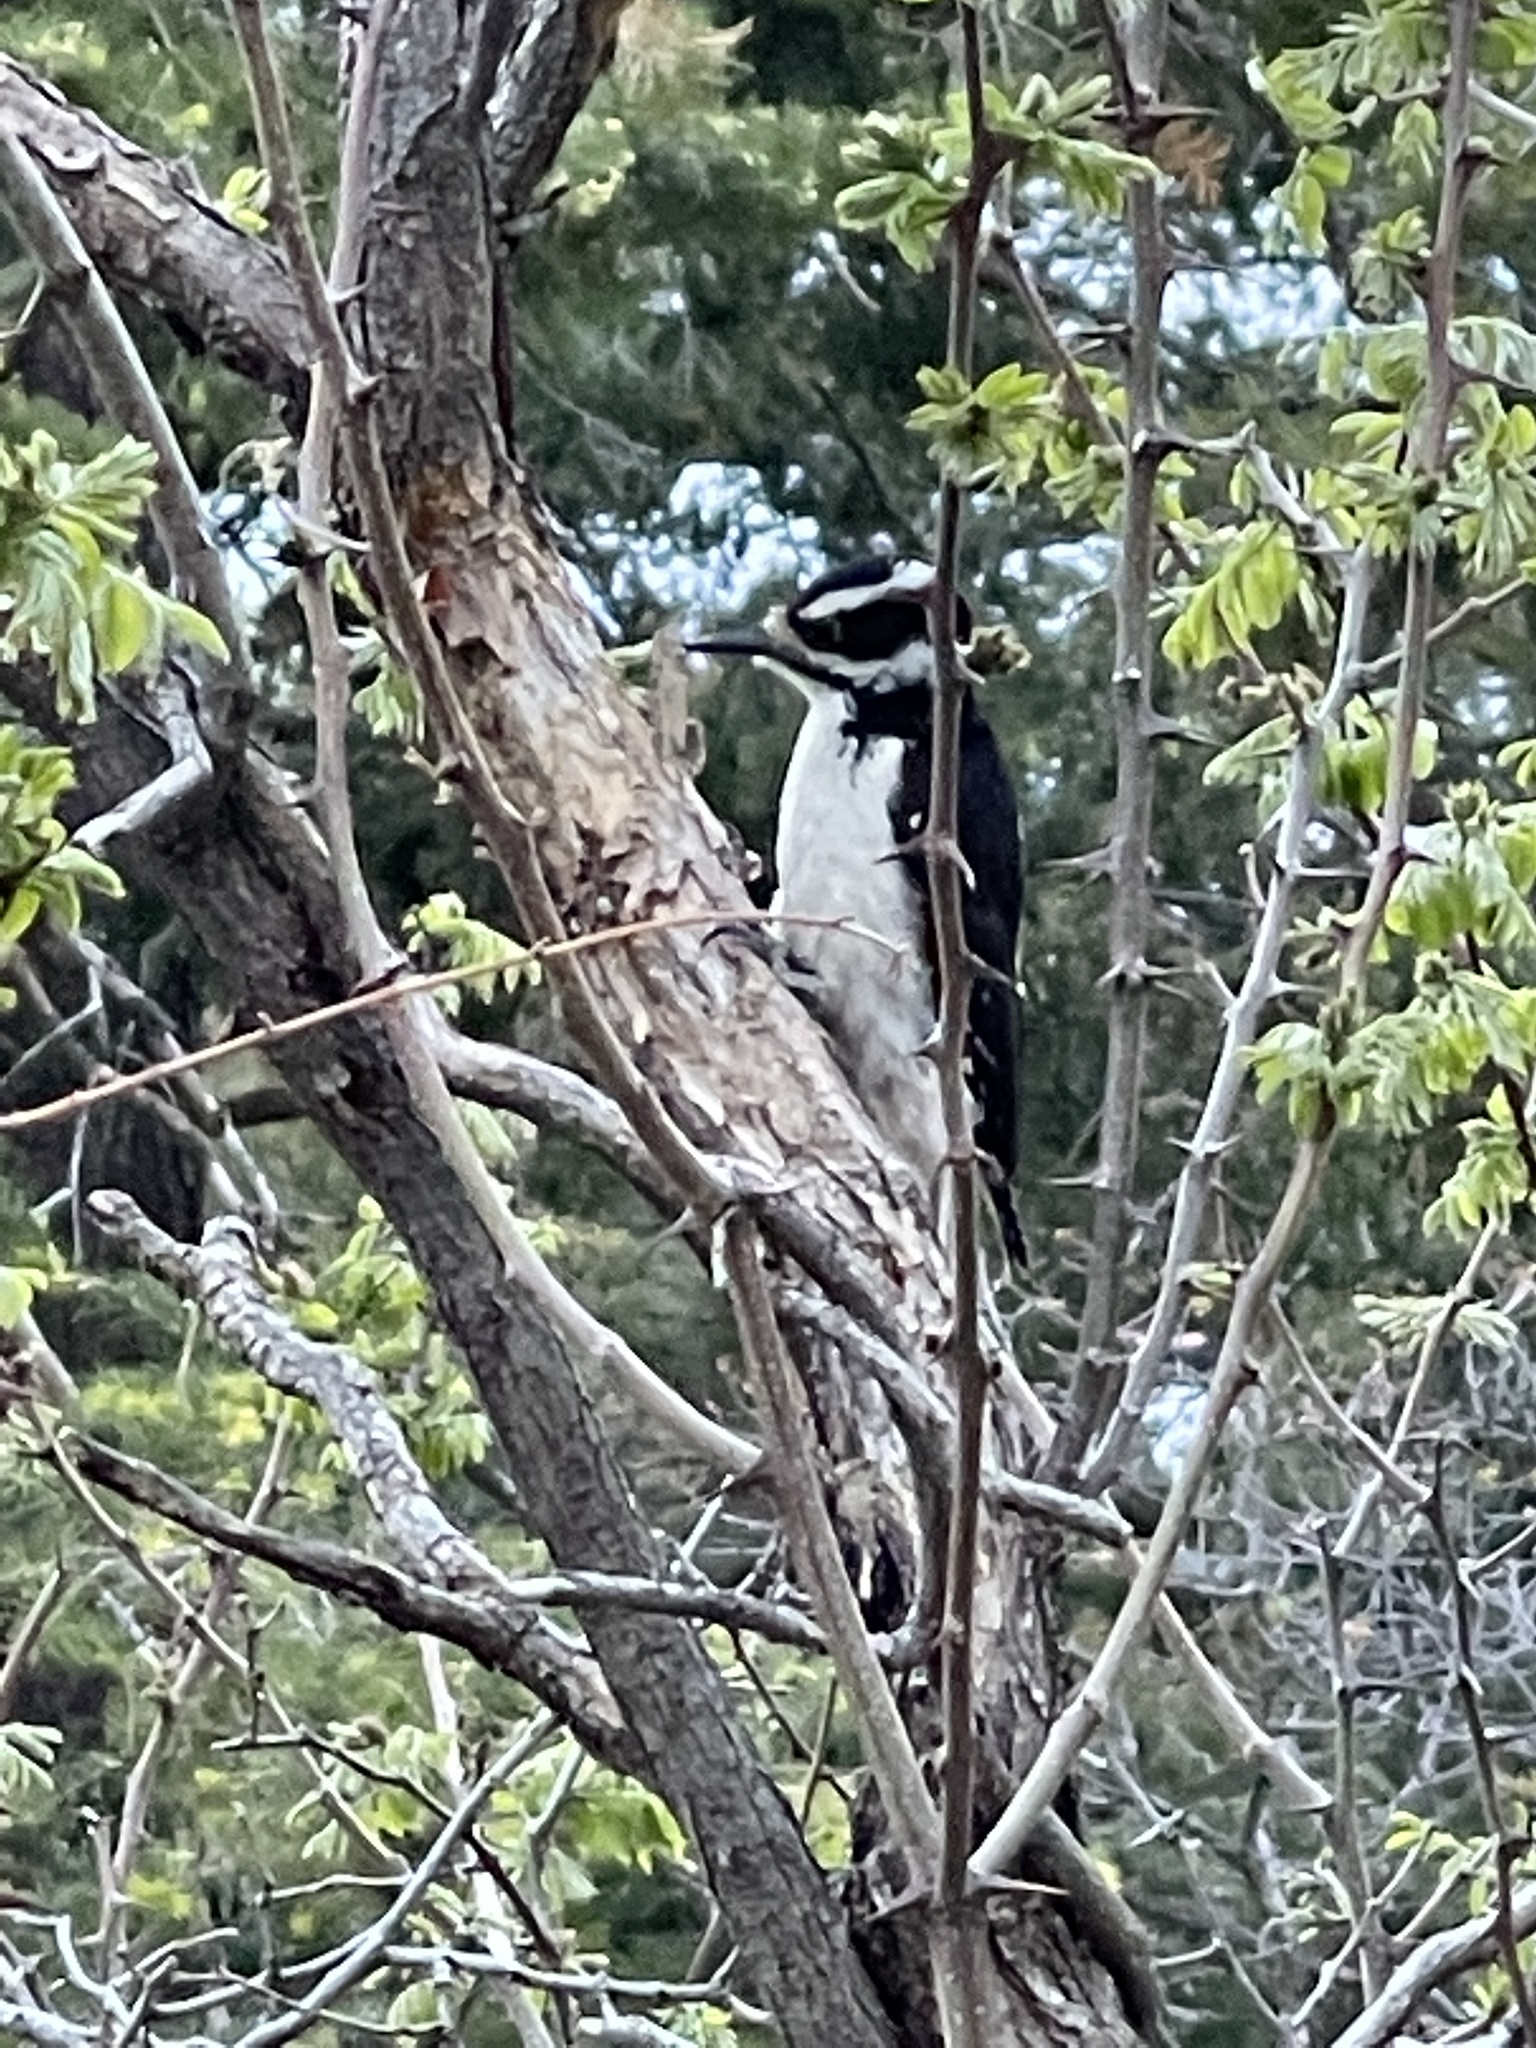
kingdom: Animalia
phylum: Chordata
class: Aves
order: Piciformes
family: Picidae
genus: Leuconotopicus
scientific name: Leuconotopicus villosus
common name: Hairy woodpecker
